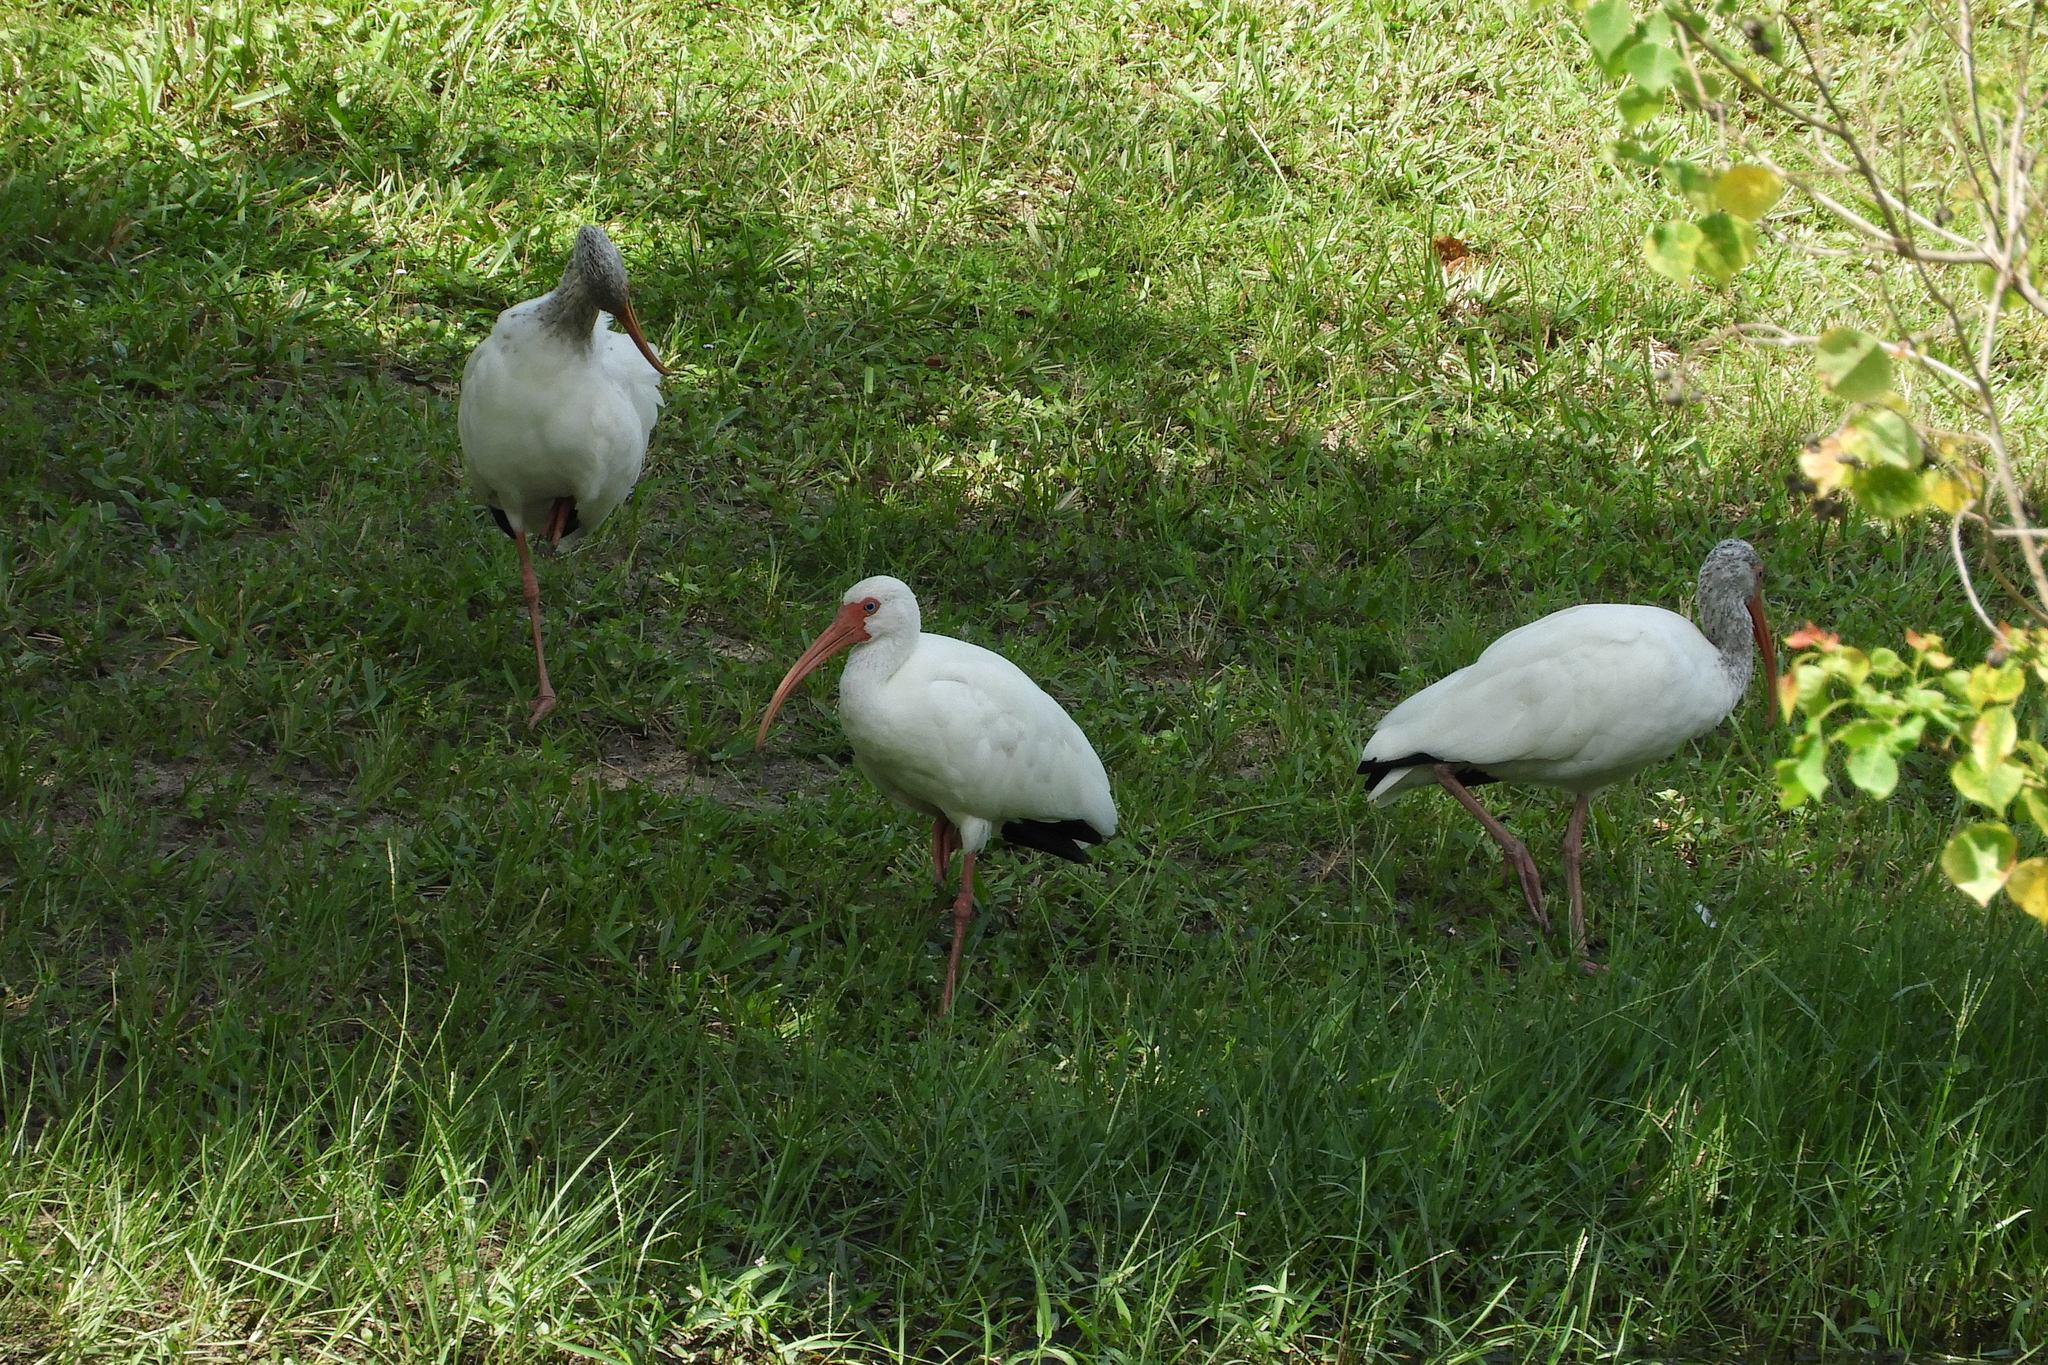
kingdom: Animalia
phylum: Chordata
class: Aves
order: Pelecaniformes
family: Threskiornithidae
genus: Eudocimus
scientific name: Eudocimus albus
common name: White ibis
